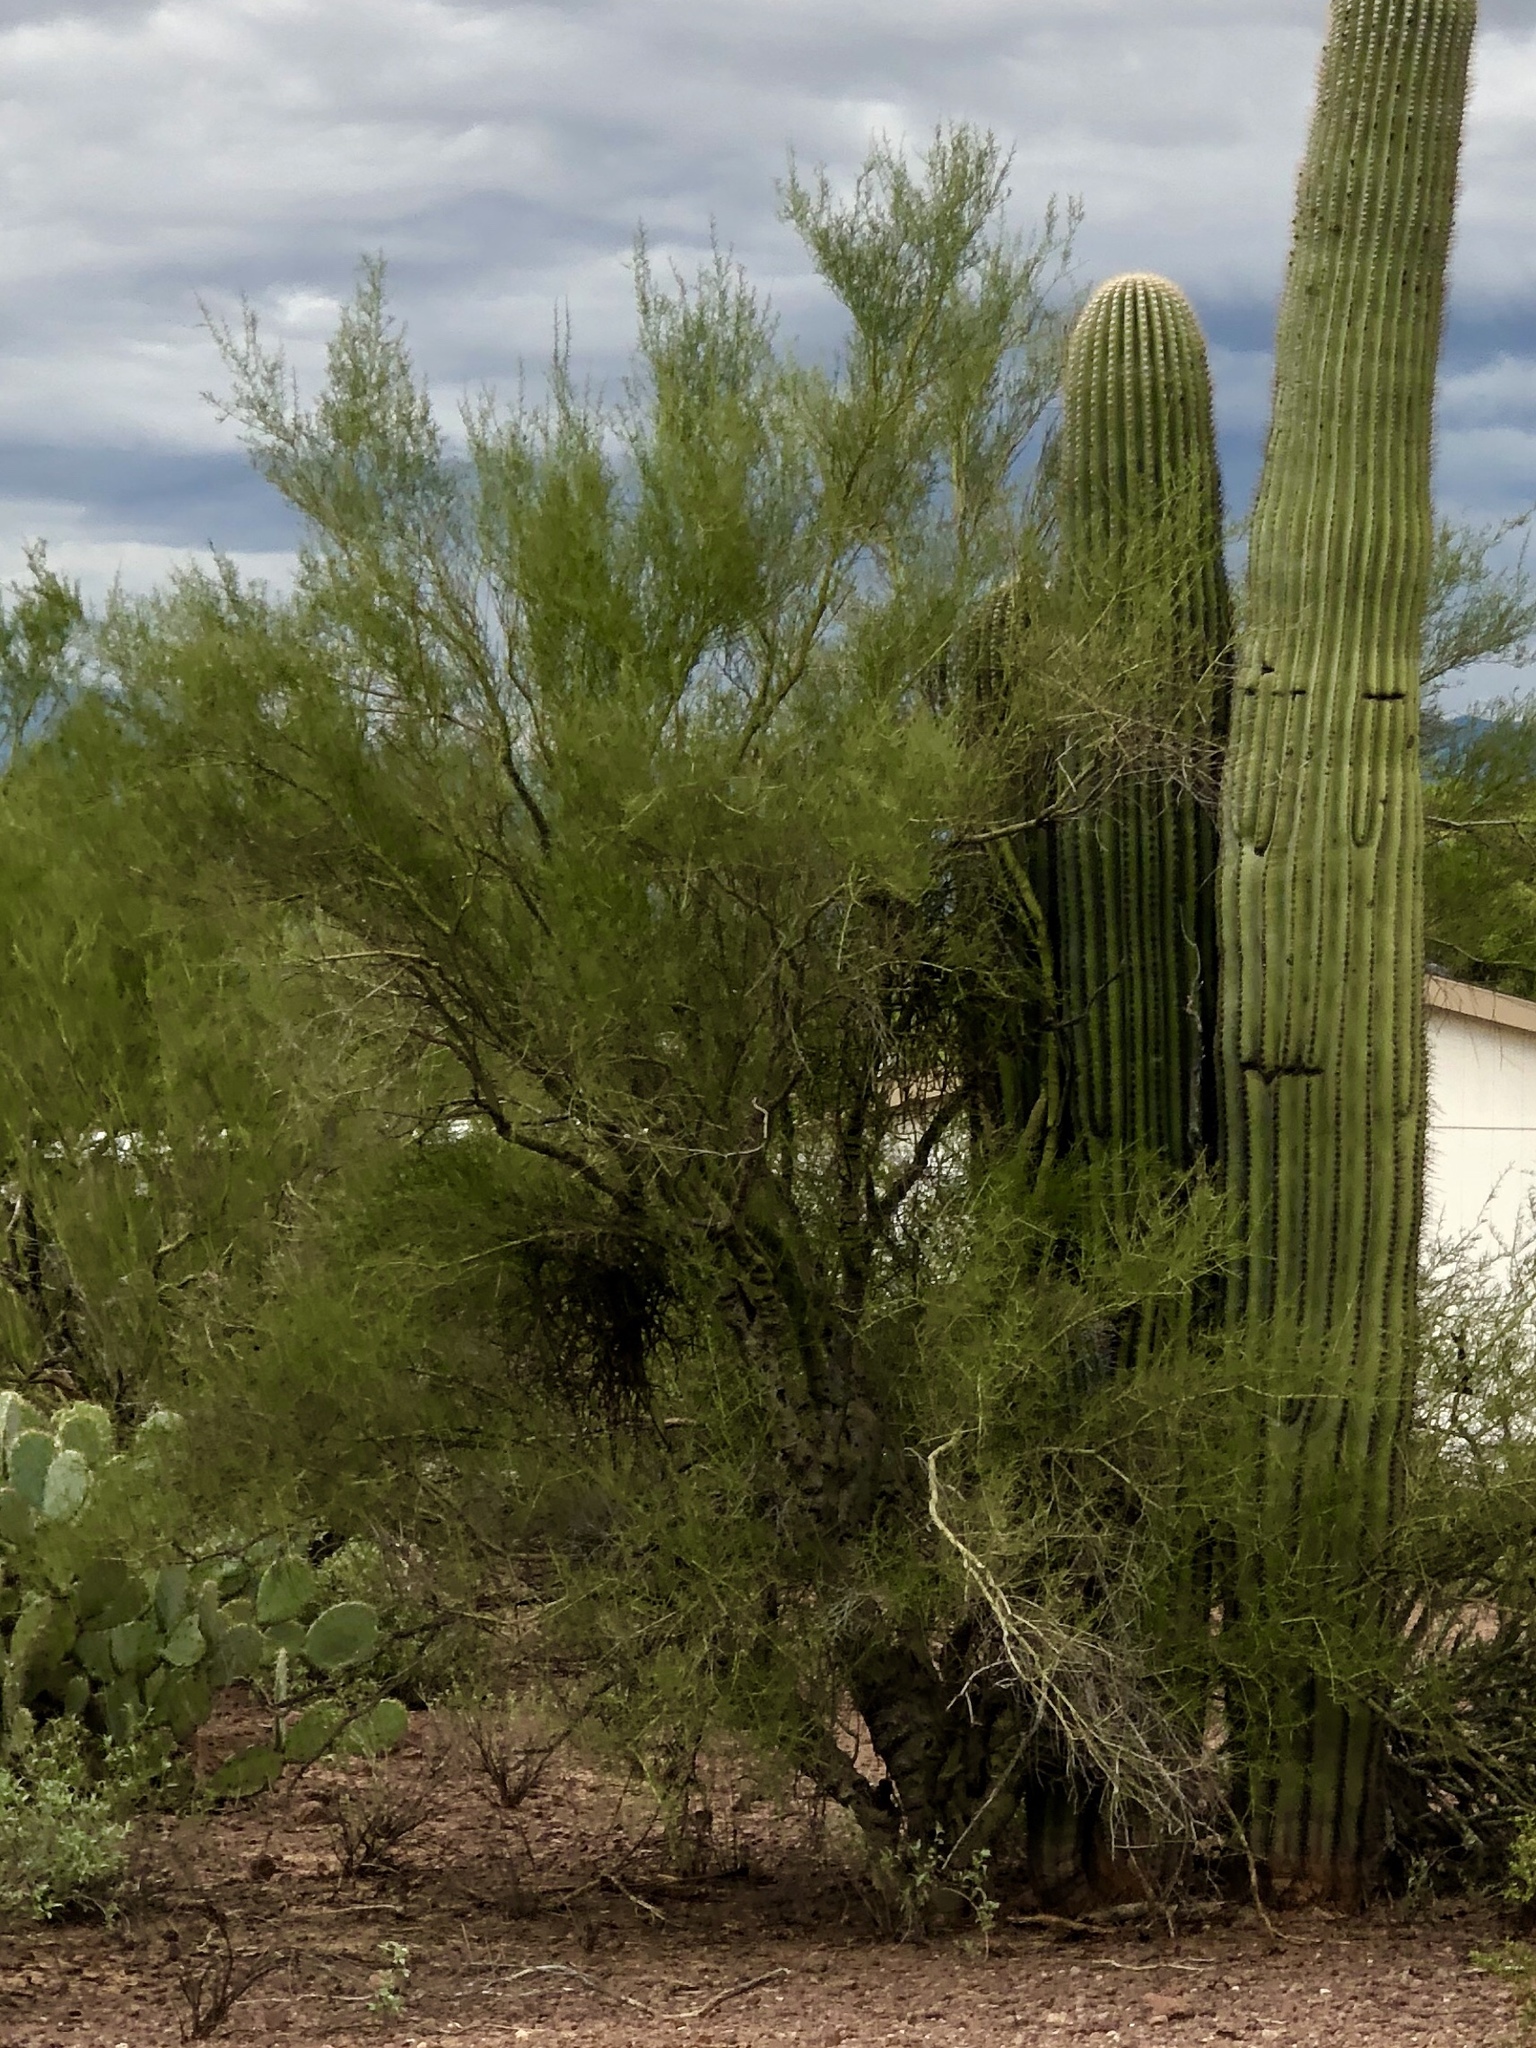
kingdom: Plantae
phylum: Tracheophyta
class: Magnoliopsida
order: Fabales
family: Fabaceae
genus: Parkinsonia
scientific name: Parkinsonia microphylla
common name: Yellow paloverde
